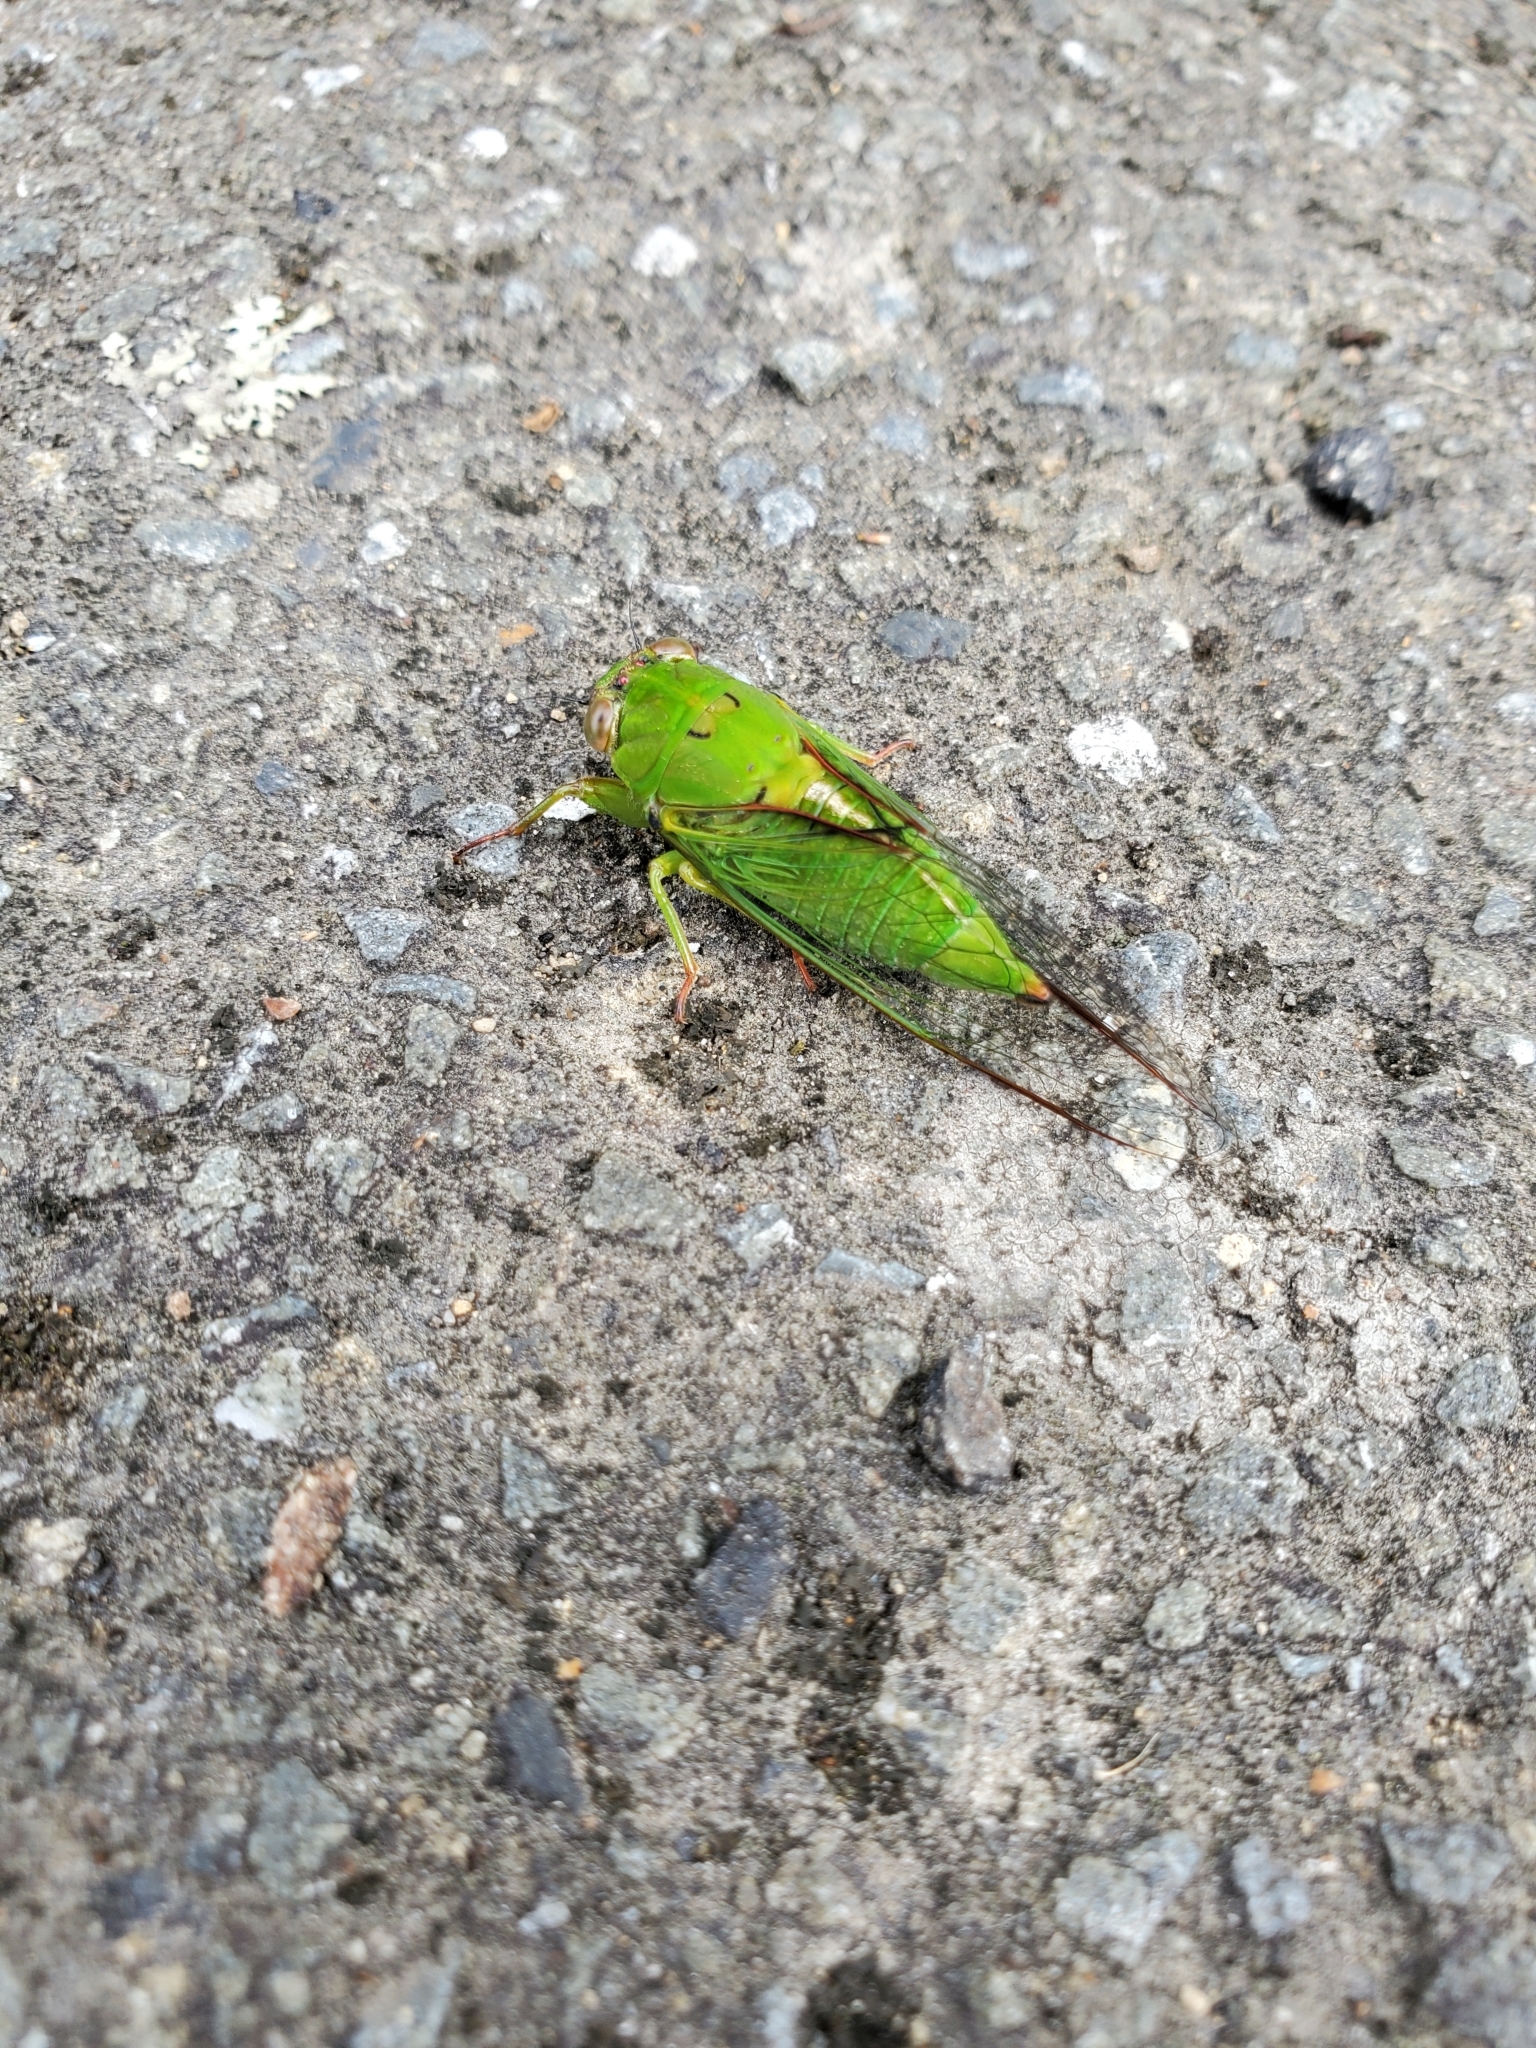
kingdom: Animalia
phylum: Arthropoda
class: Insecta
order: Hemiptera
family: Cicadidae
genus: Kikihia
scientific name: Kikihia ochrina
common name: April green cicada
